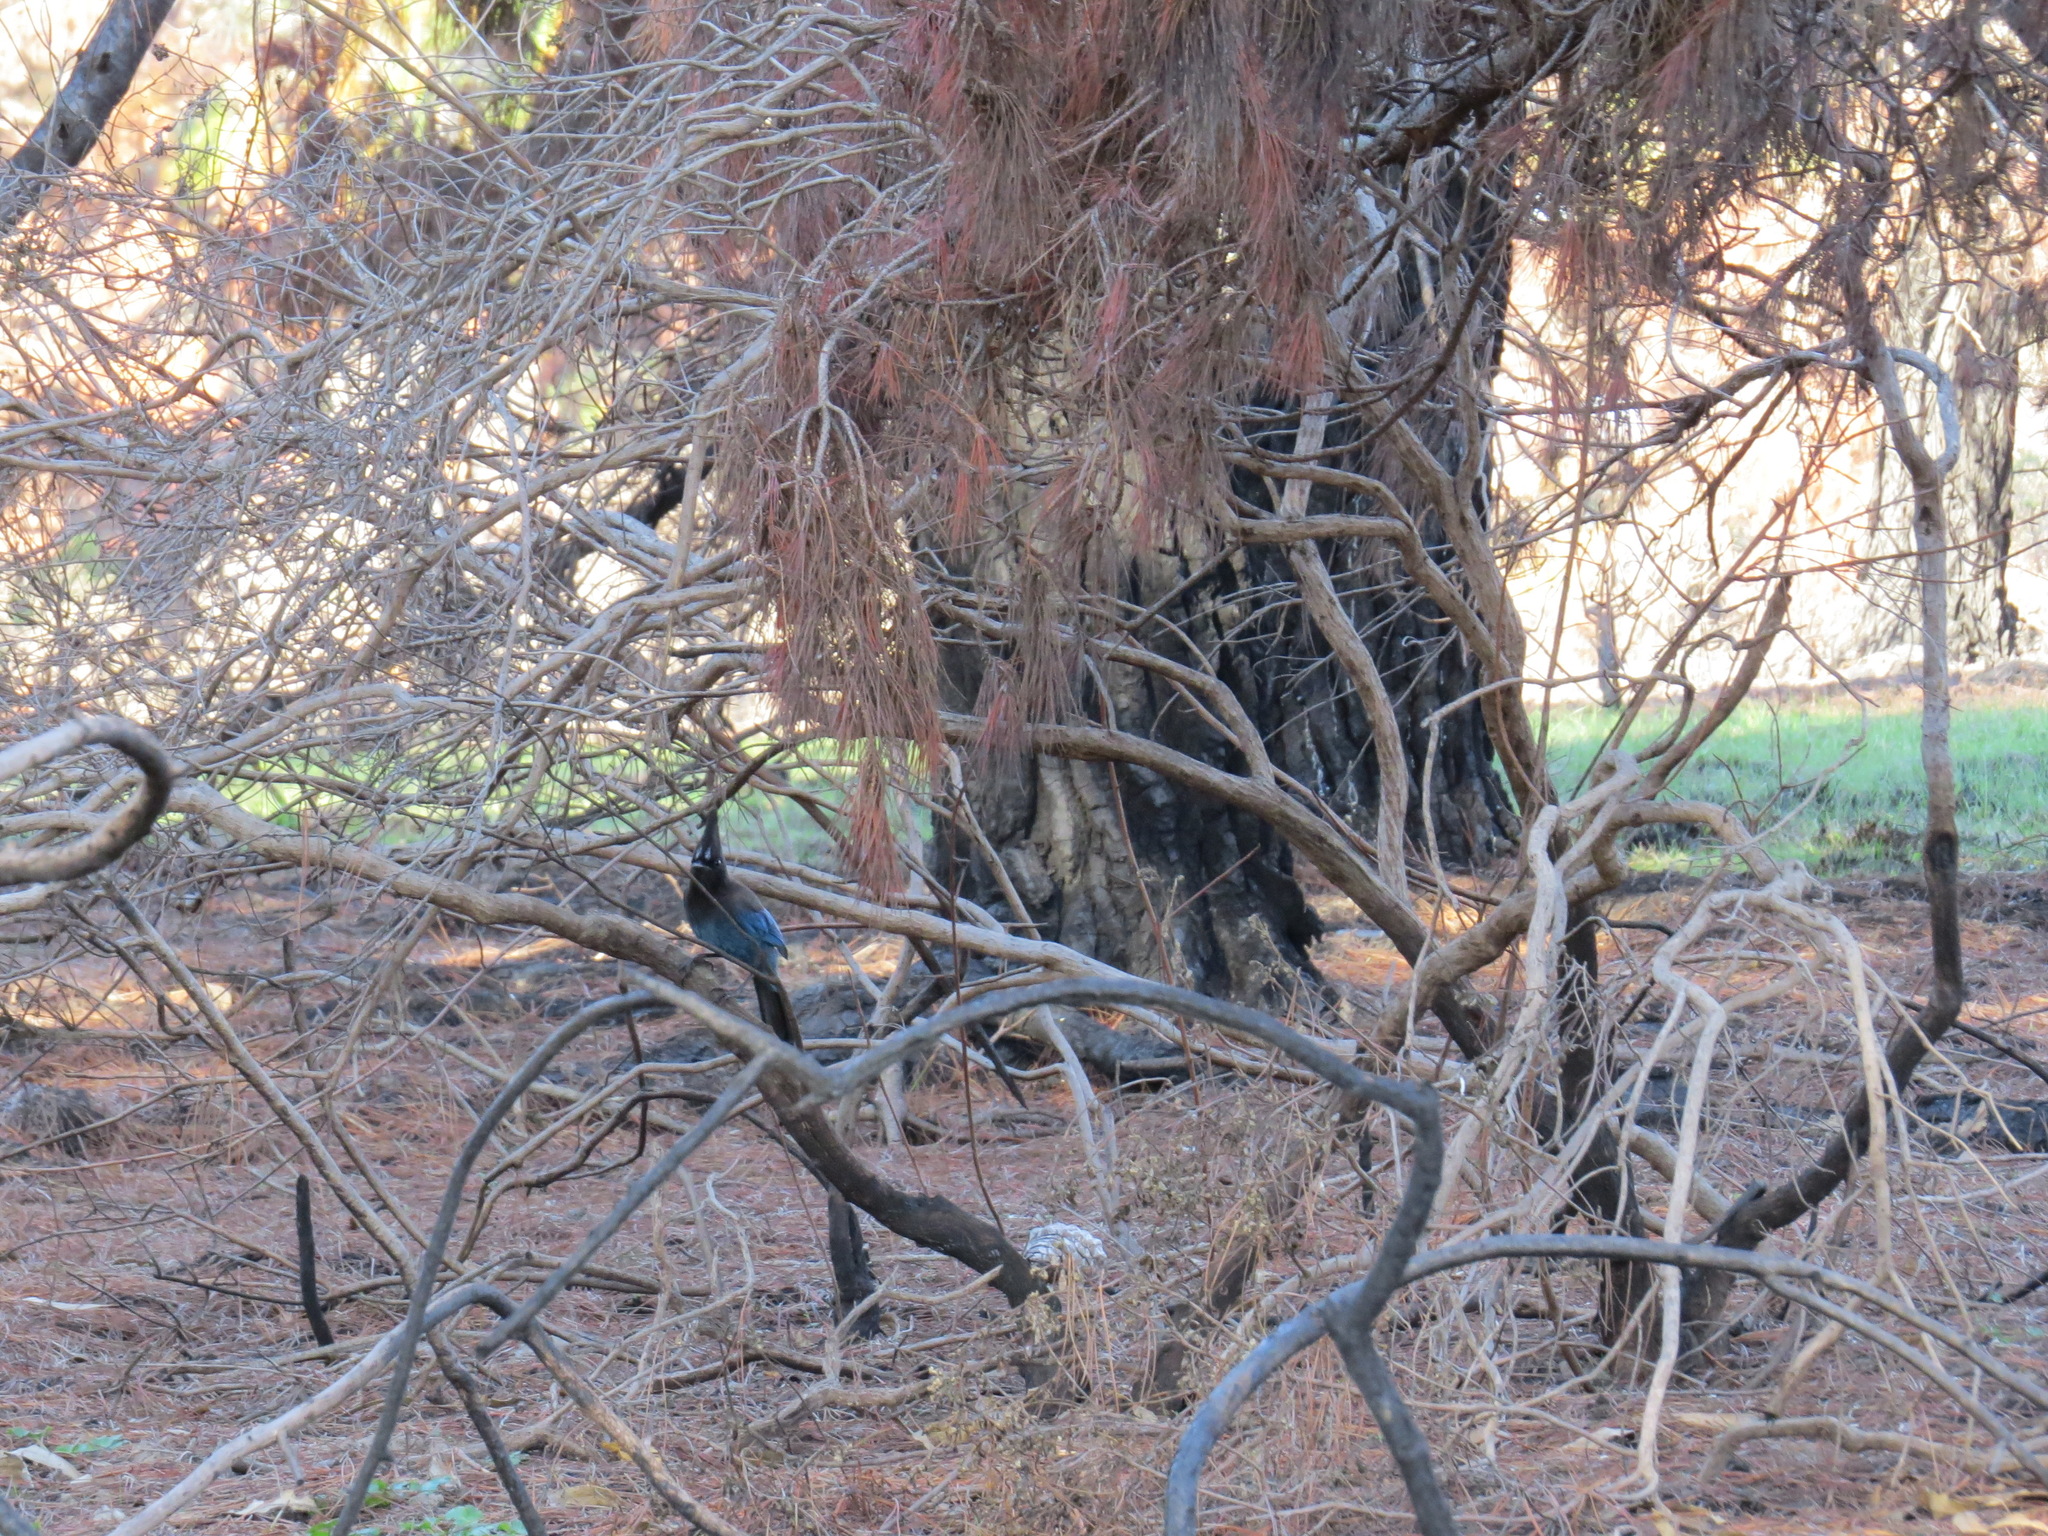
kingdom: Animalia
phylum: Chordata
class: Aves
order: Passeriformes
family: Corvidae
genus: Cyanocitta
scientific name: Cyanocitta stelleri
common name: Steller's jay
